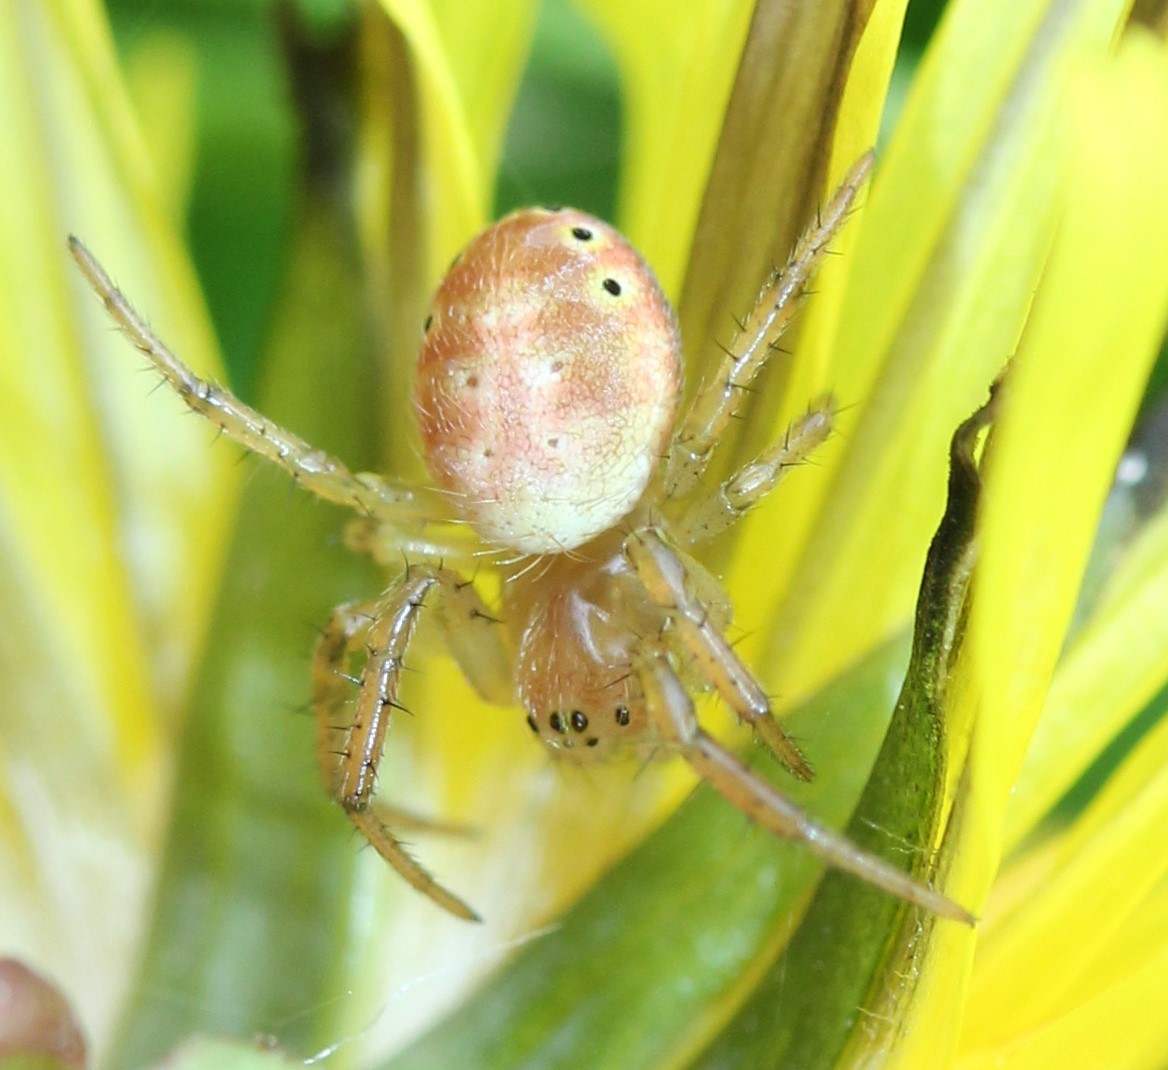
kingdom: Animalia
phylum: Arthropoda
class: Arachnida
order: Araneae
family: Araneidae
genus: Araniella
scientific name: Araniella displicata
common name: Sixspotted orb weaver
